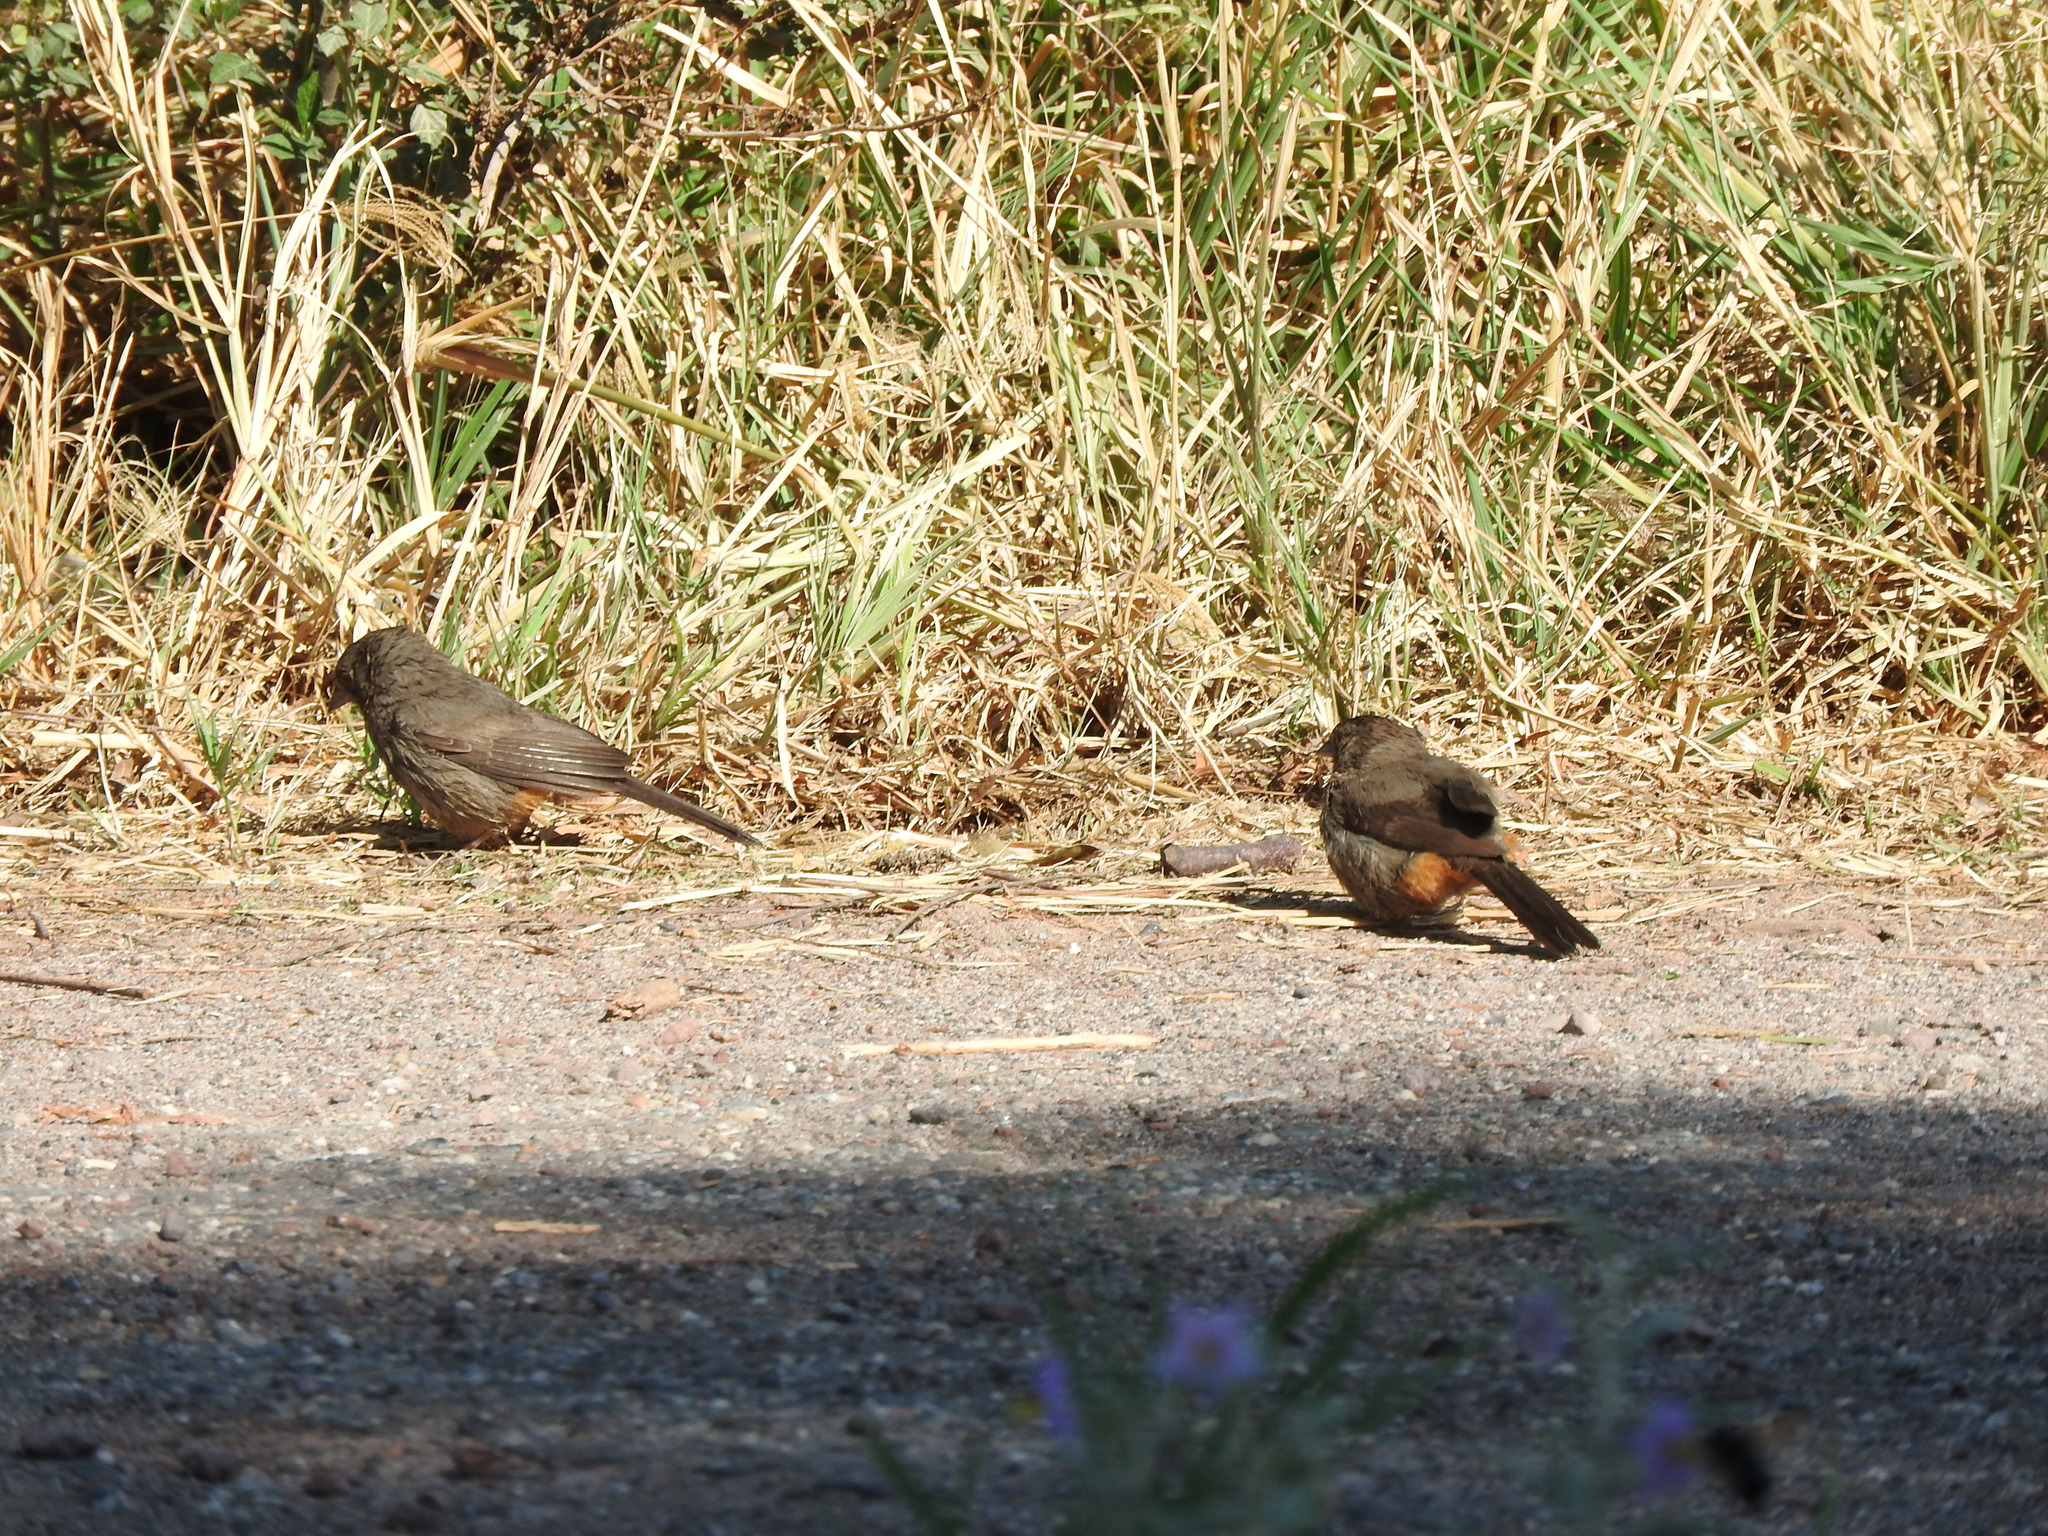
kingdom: Animalia
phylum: Chordata
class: Aves
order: Passeriformes
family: Passerellidae
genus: Melozone
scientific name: Melozone fusca
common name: Canyon towhee
